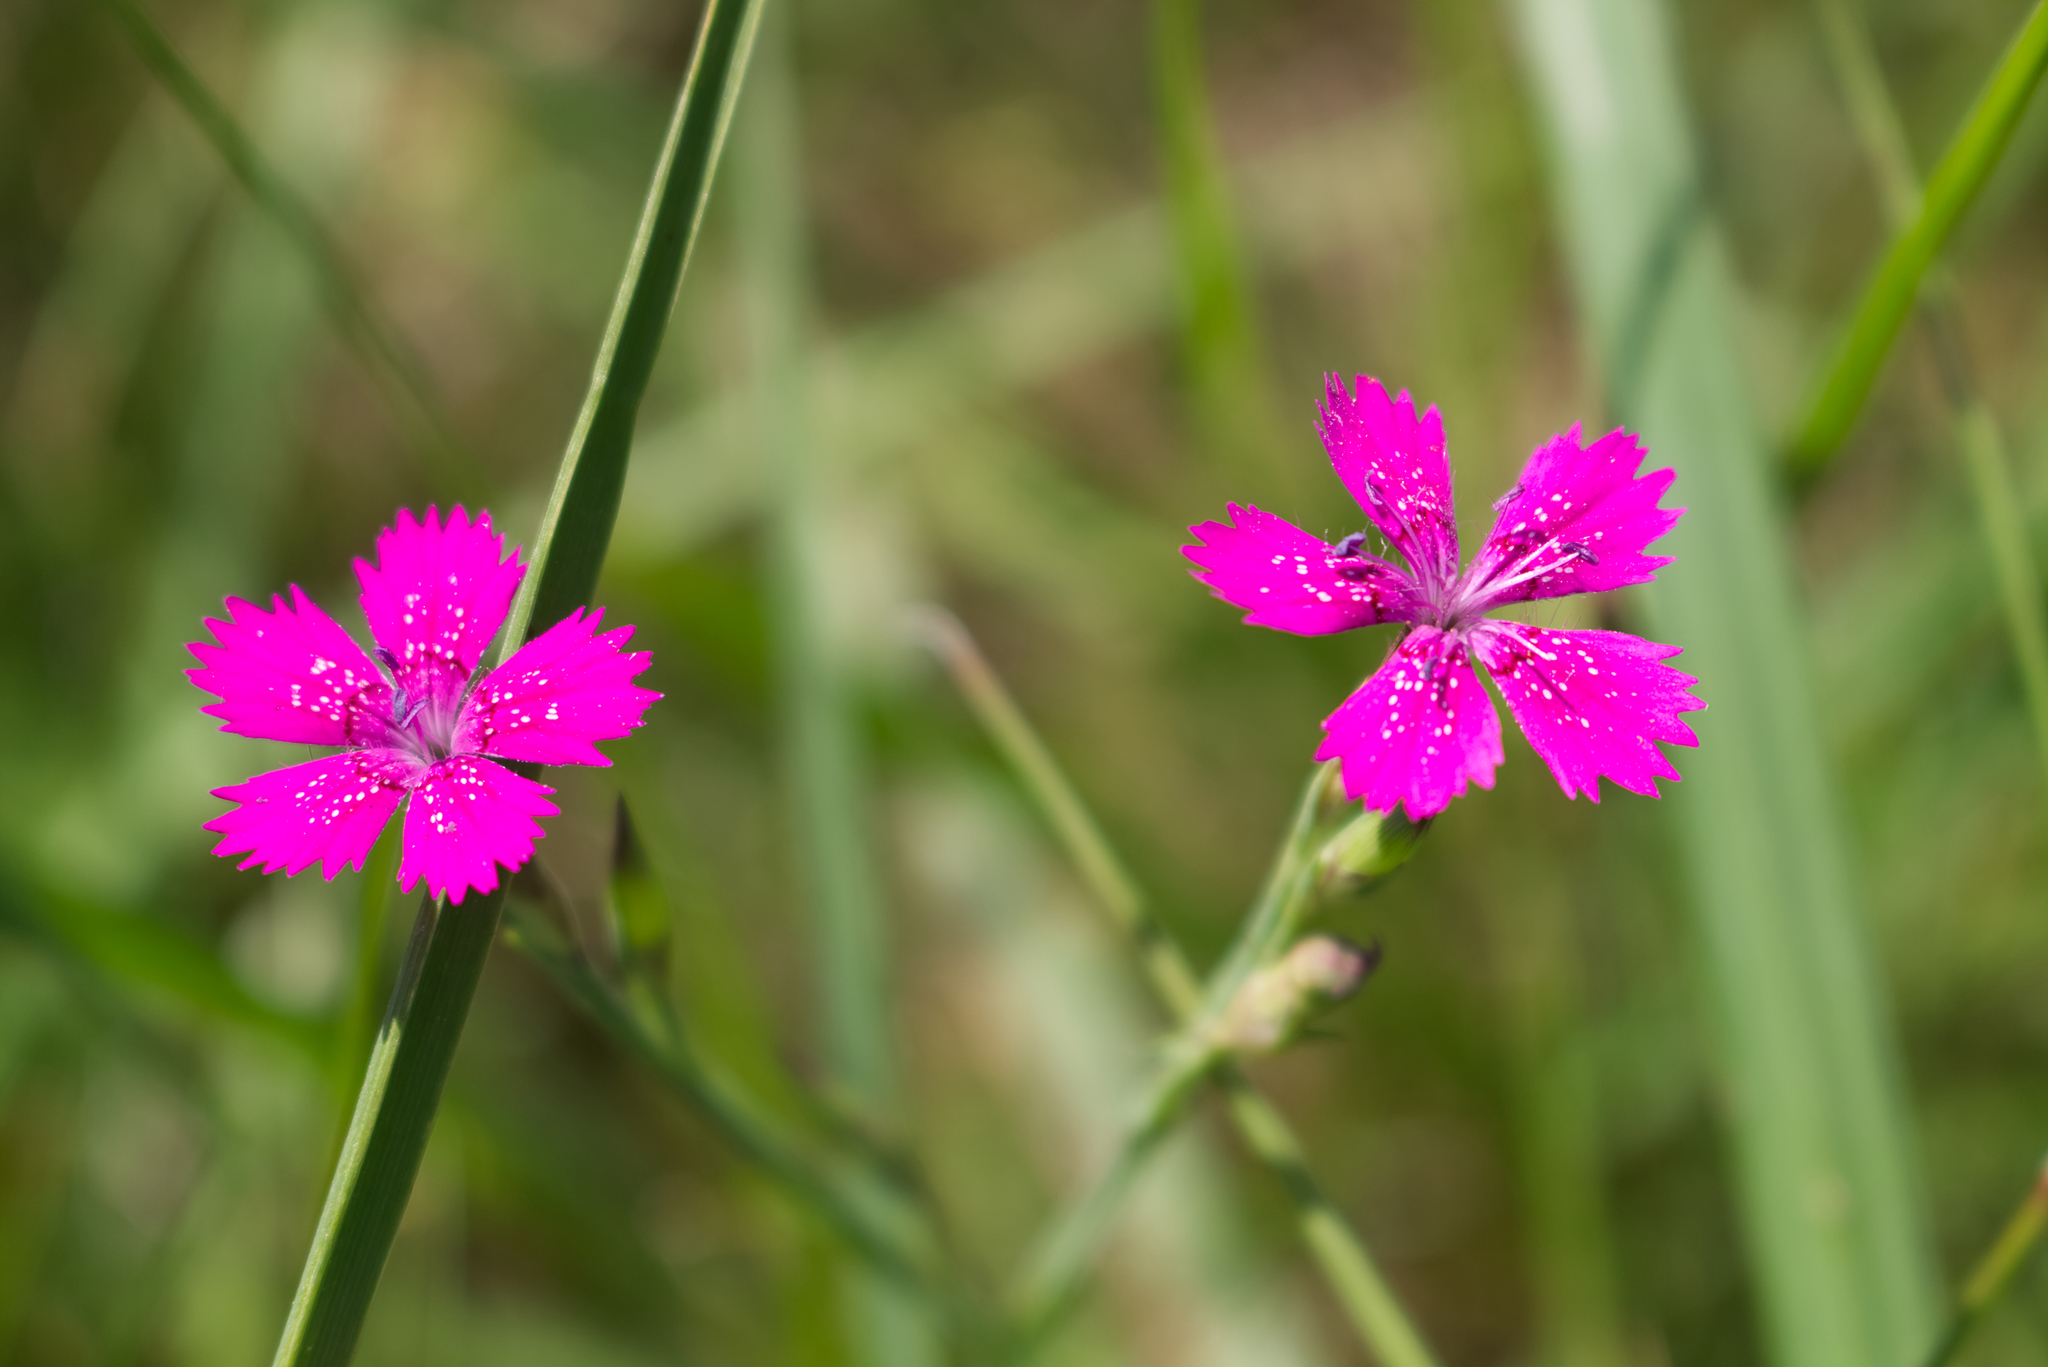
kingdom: Plantae
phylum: Tracheophyta
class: Magnoliopsida
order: Caryophyllales
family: Caryophyllaceae
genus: Dianthus
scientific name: Dianthus deltoides
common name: Maiden pink
